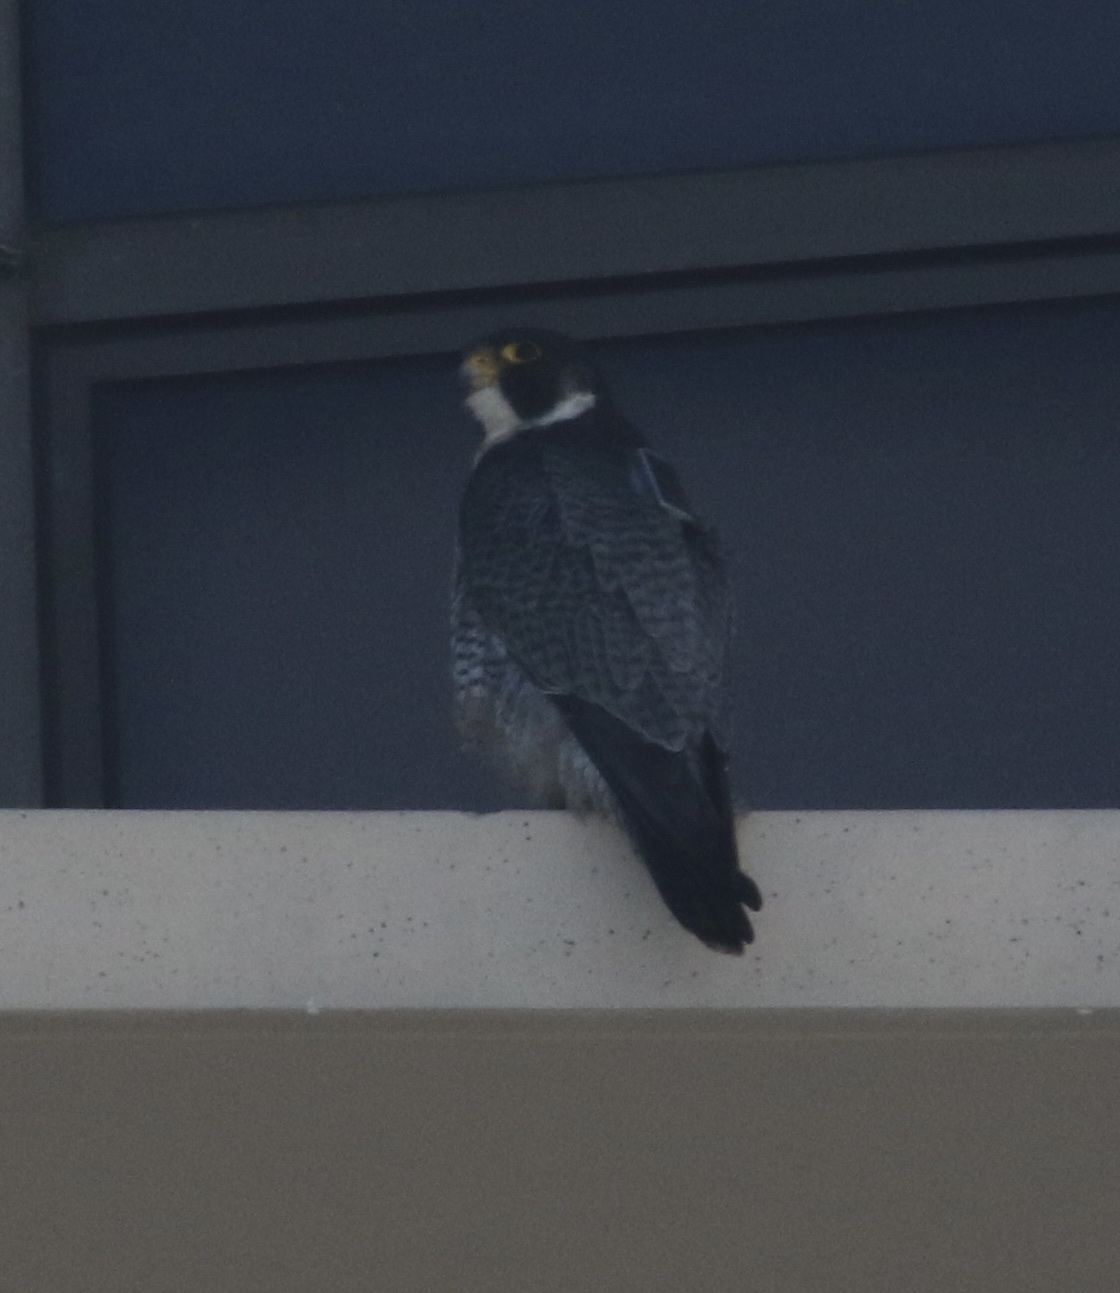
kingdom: Animalia
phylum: Chordata
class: Aves
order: Falconiformes
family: Falconidae
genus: Falco
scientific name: Falco peregrinus
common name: Peregrine falcon
